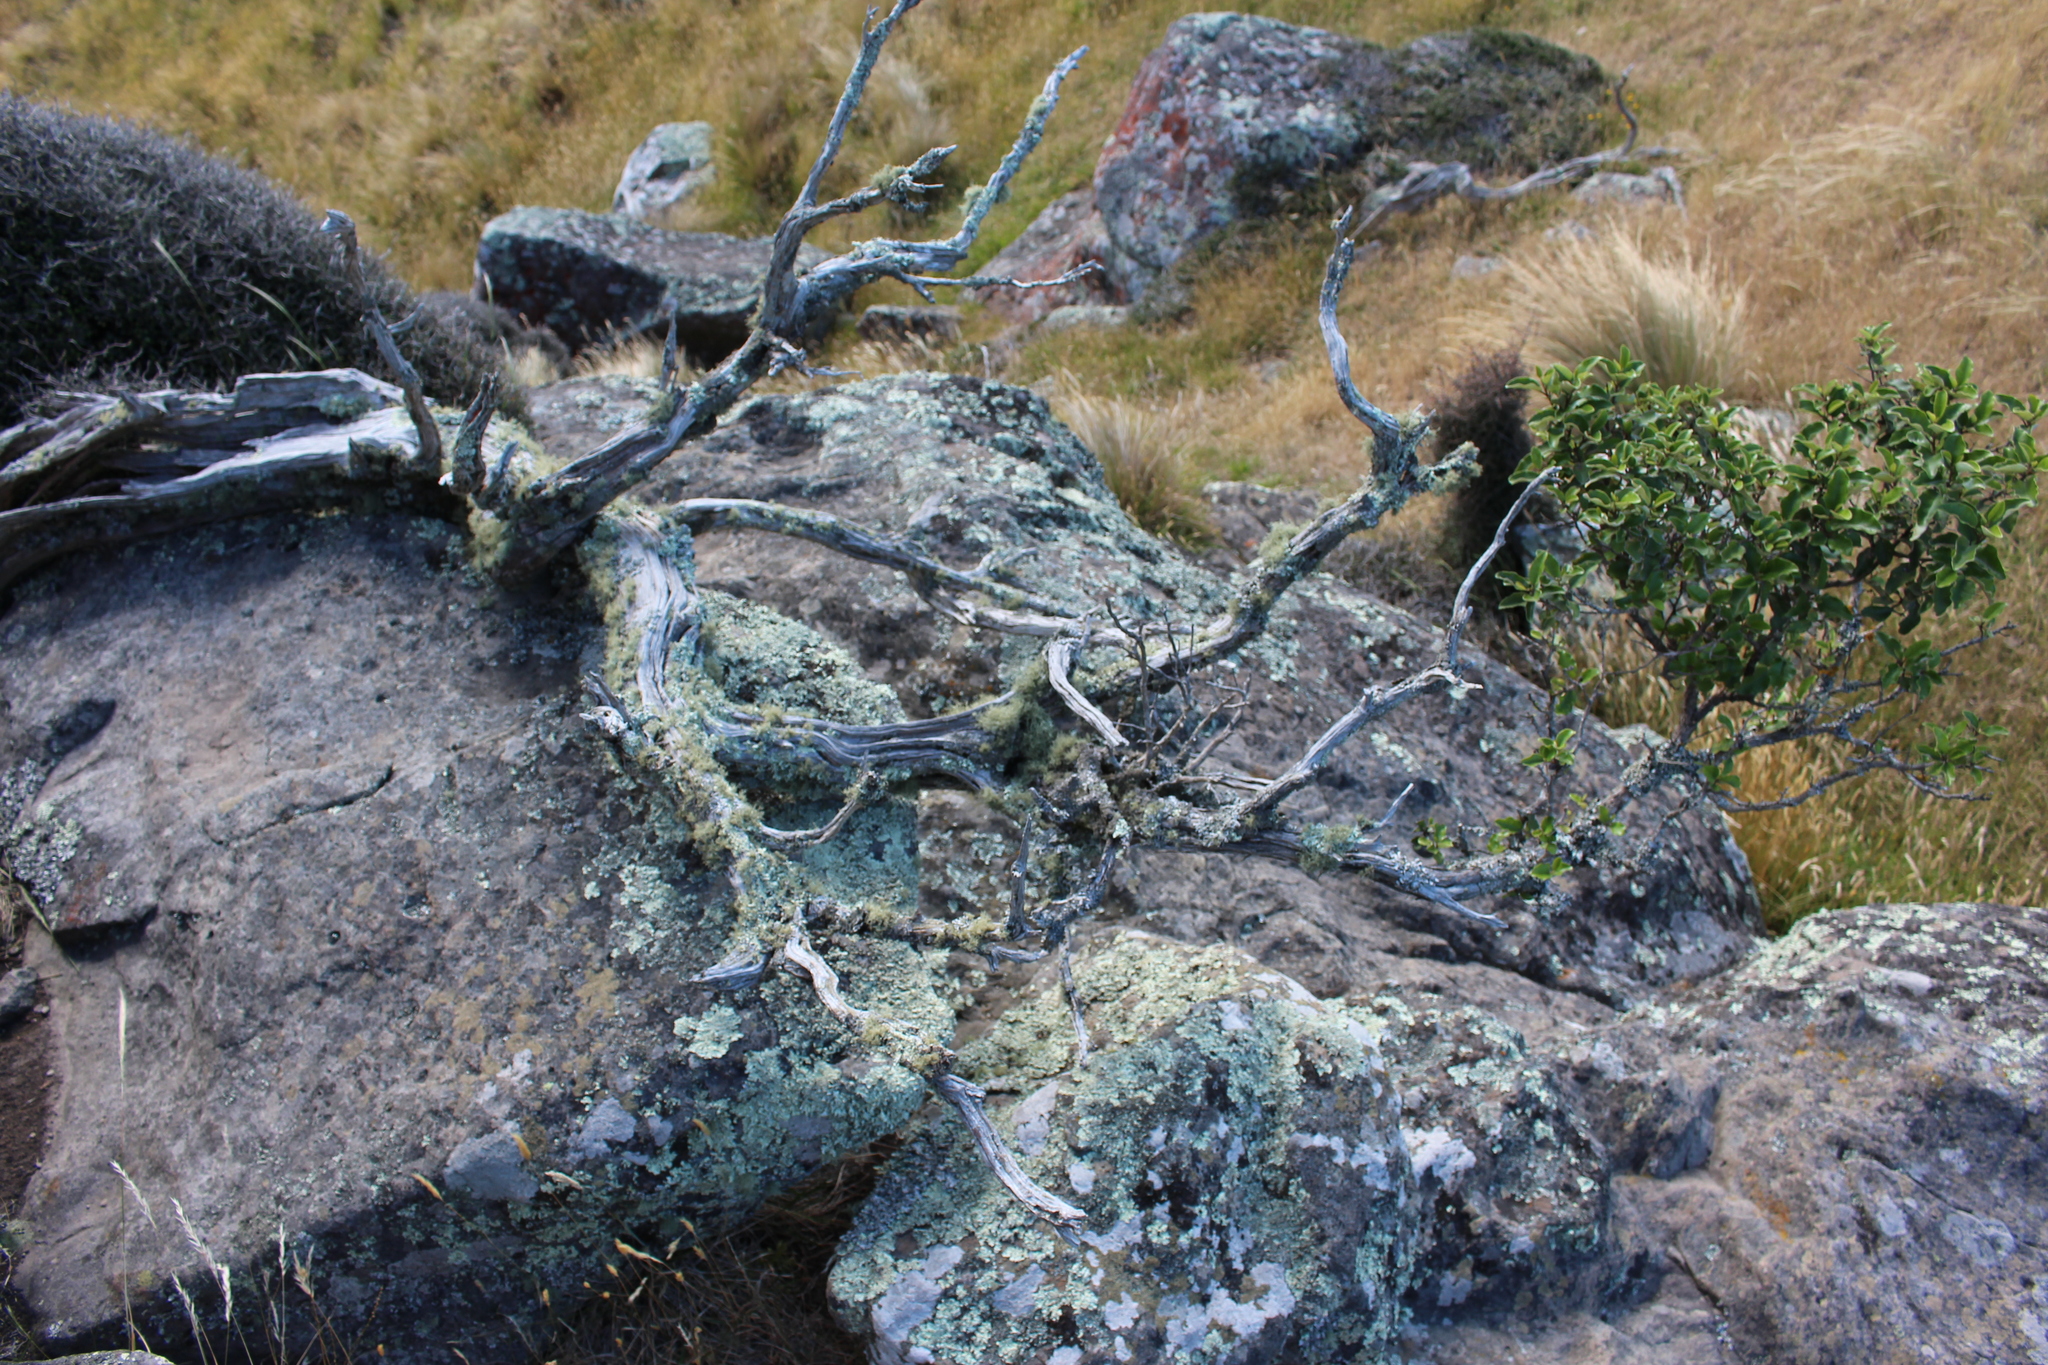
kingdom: Plantae
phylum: Tracheophyta
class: Magnoliopsida
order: Asterales
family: Asteraceae
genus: Olearia
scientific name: Olearia paniculata
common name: Akiraho
